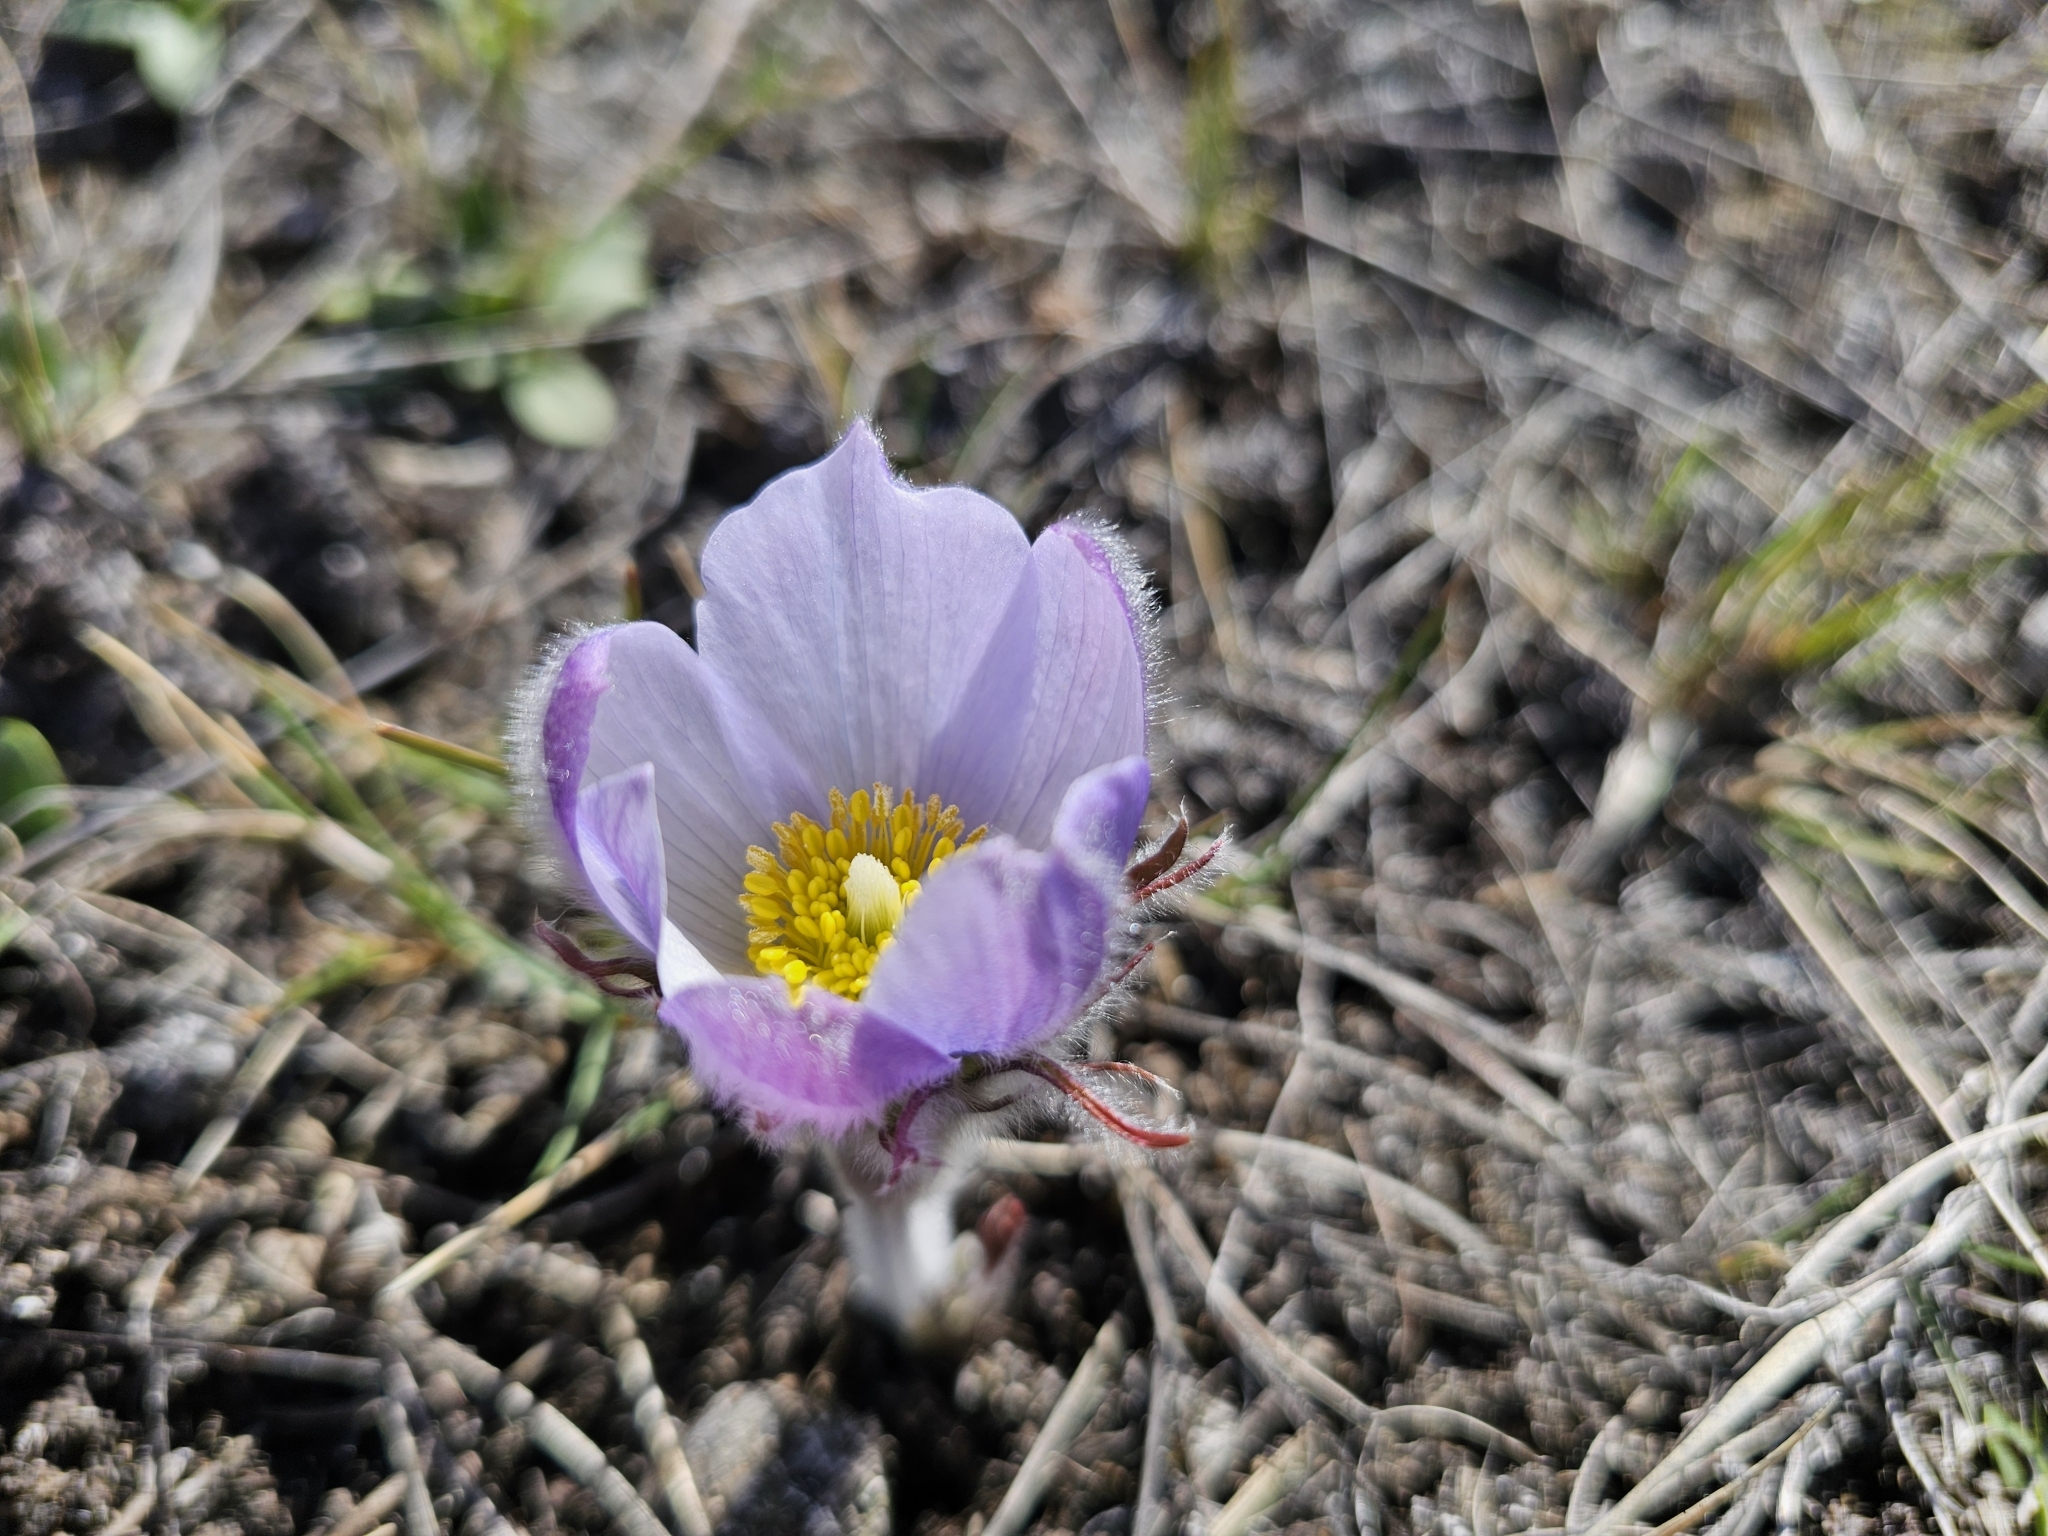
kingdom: Plantae
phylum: Tracheophyta
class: Magnoliopsida
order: Ranunculales
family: Ranunculaceae
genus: Pulsatilla
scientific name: Pulsatilla nuttalliana
